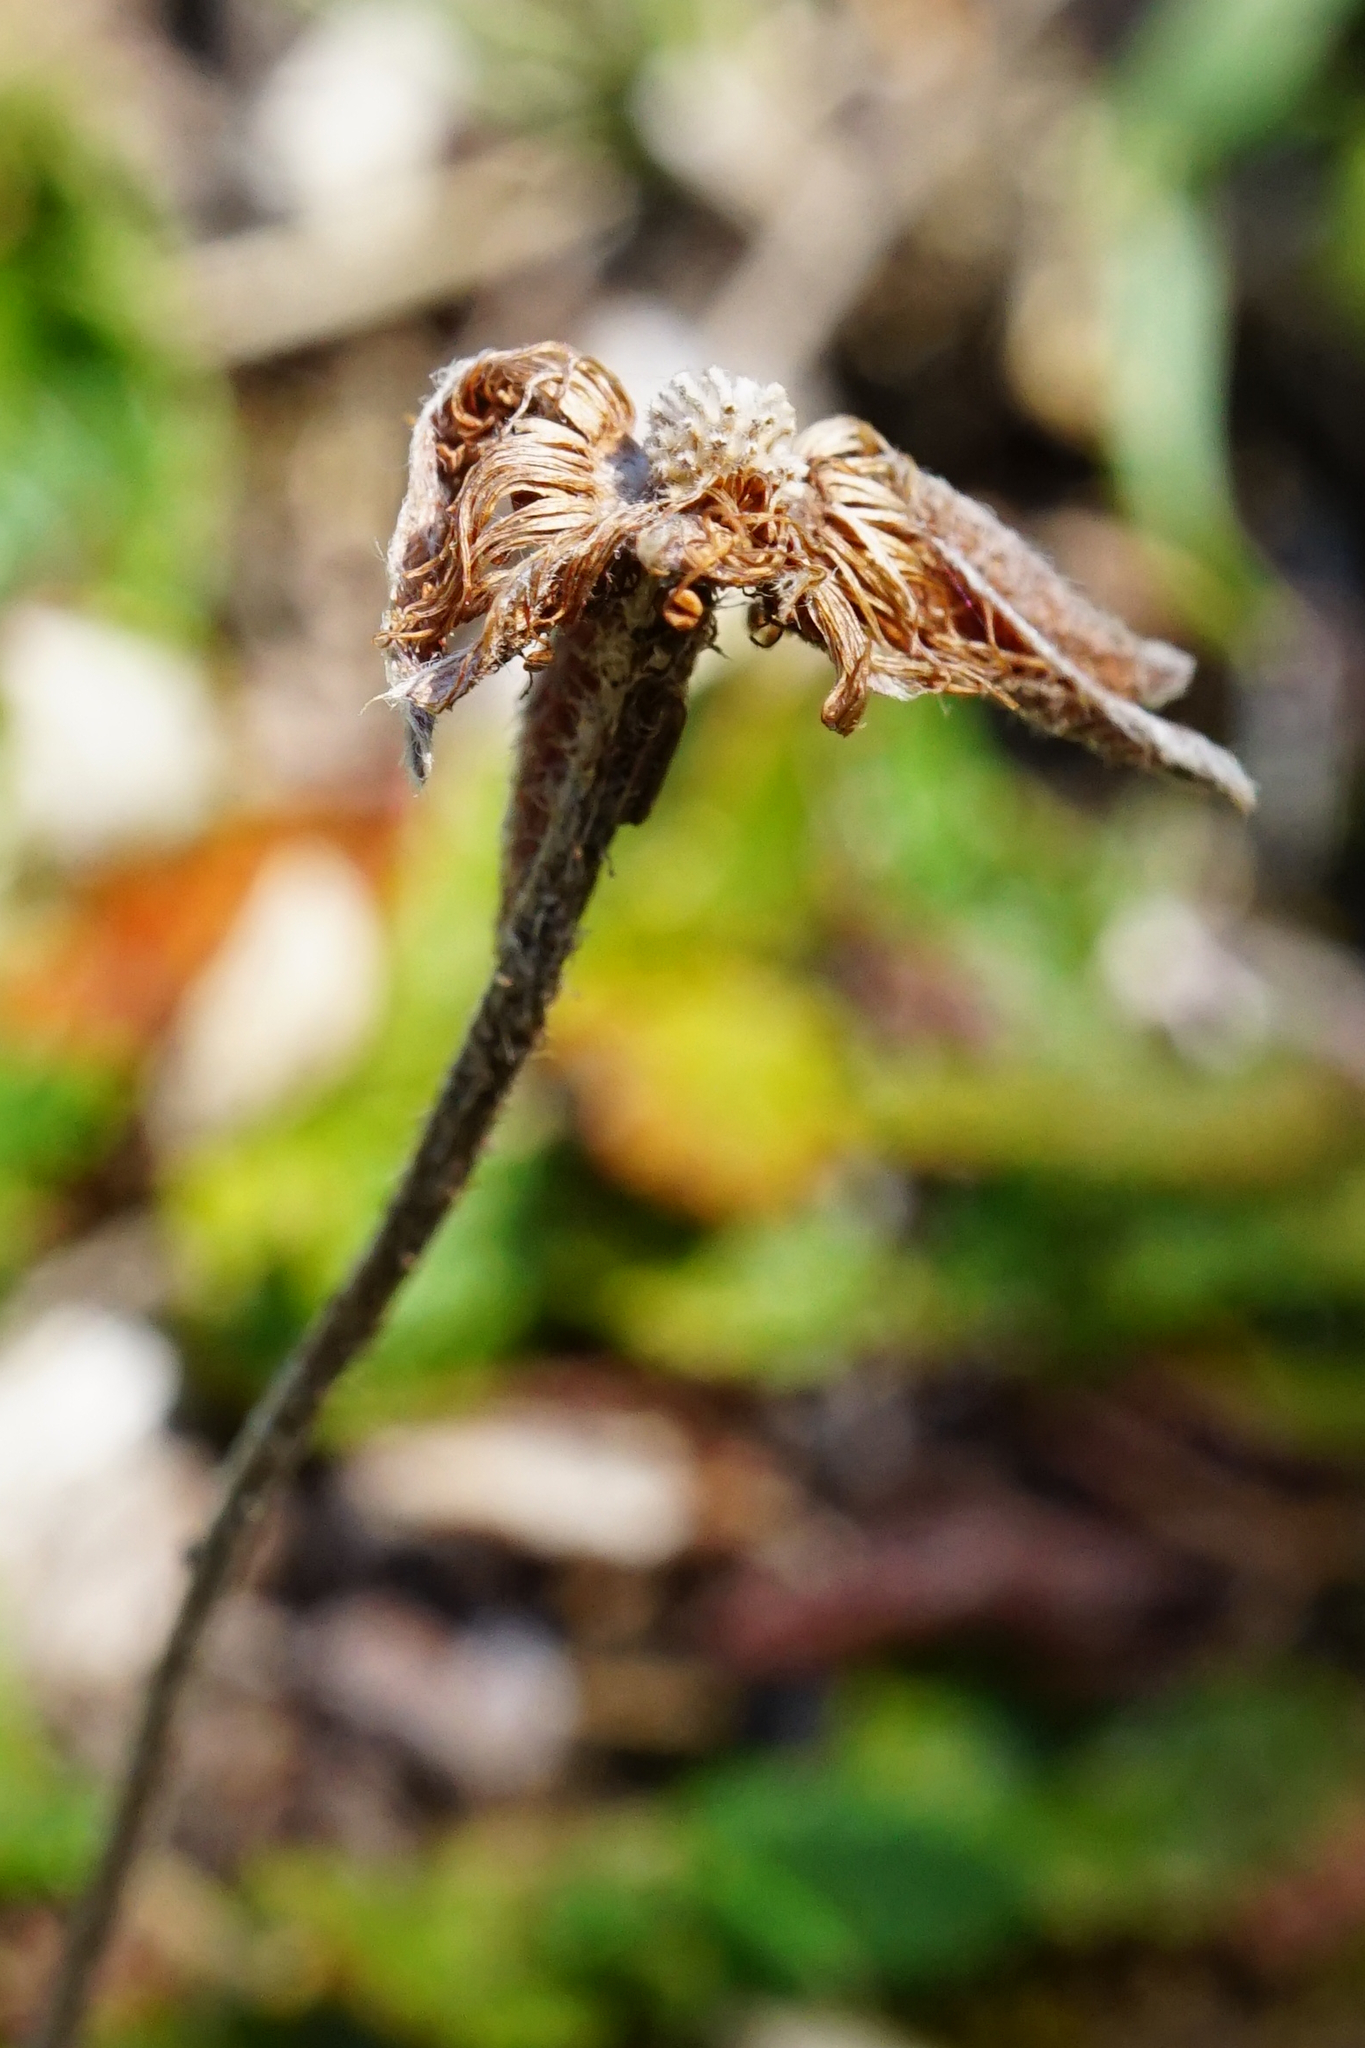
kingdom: Plantae
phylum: Tracheophyta
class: Magnoliopsida
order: Rosales
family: Rosaceae
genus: Dryas
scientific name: Dryas octopetala
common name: Eight-petal mountain-avens
